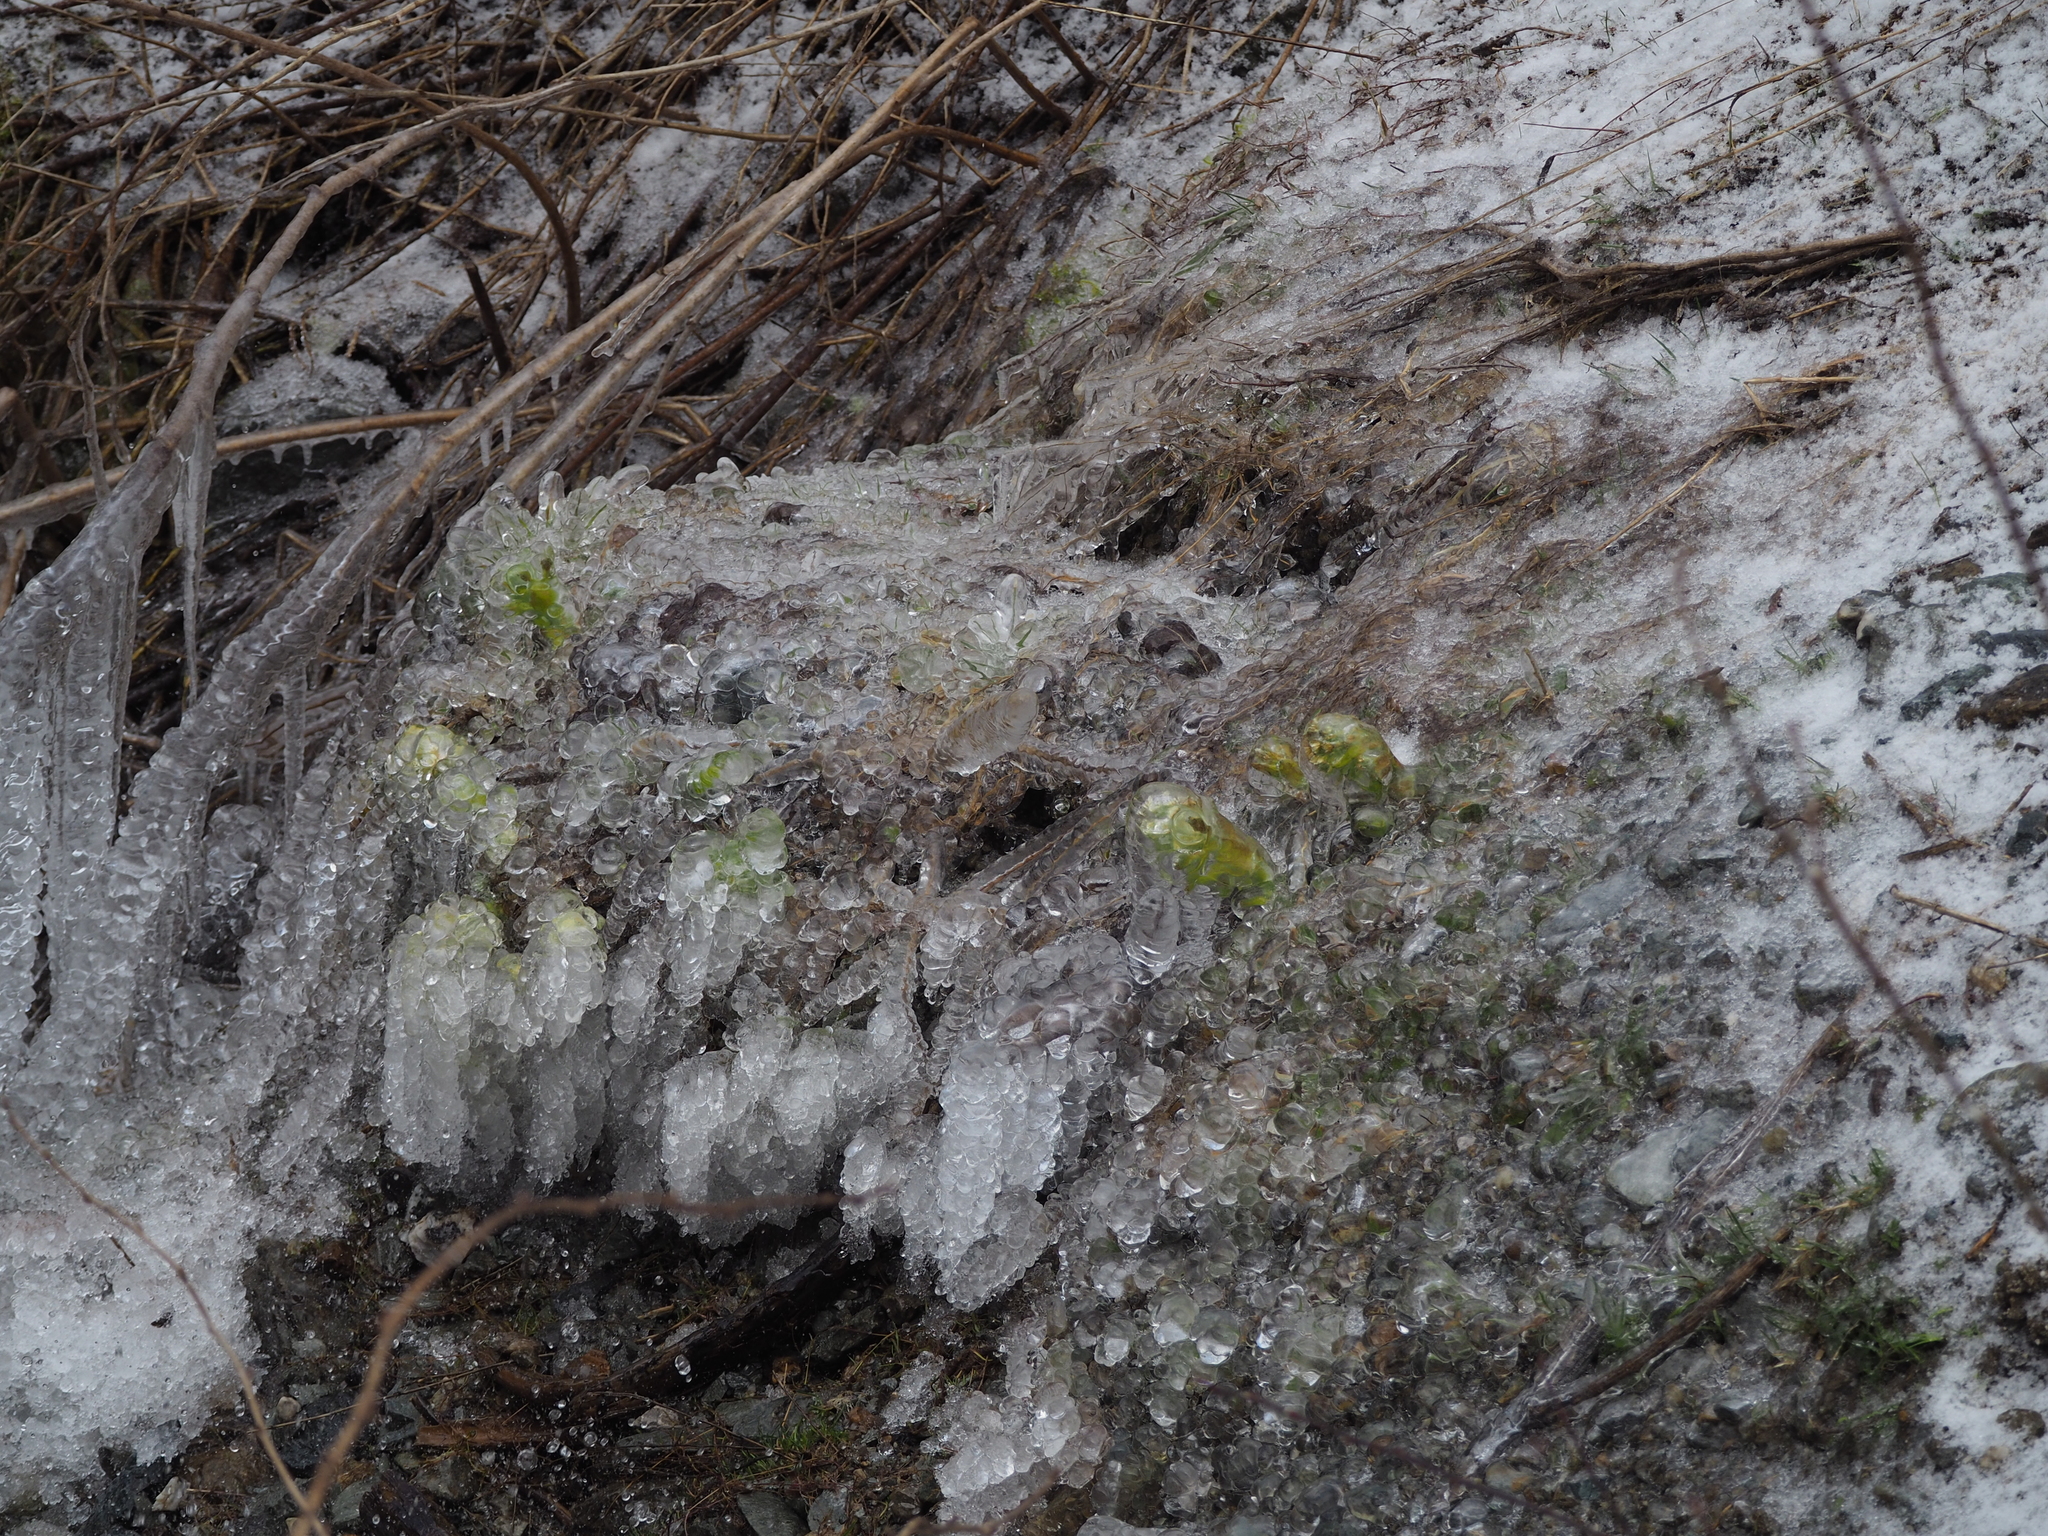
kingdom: Plantae
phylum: Tracheophyta
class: Magnoliopsida
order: Asterales
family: Asteraceae
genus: Petasites
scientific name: Petasites albus
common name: White butterbur
